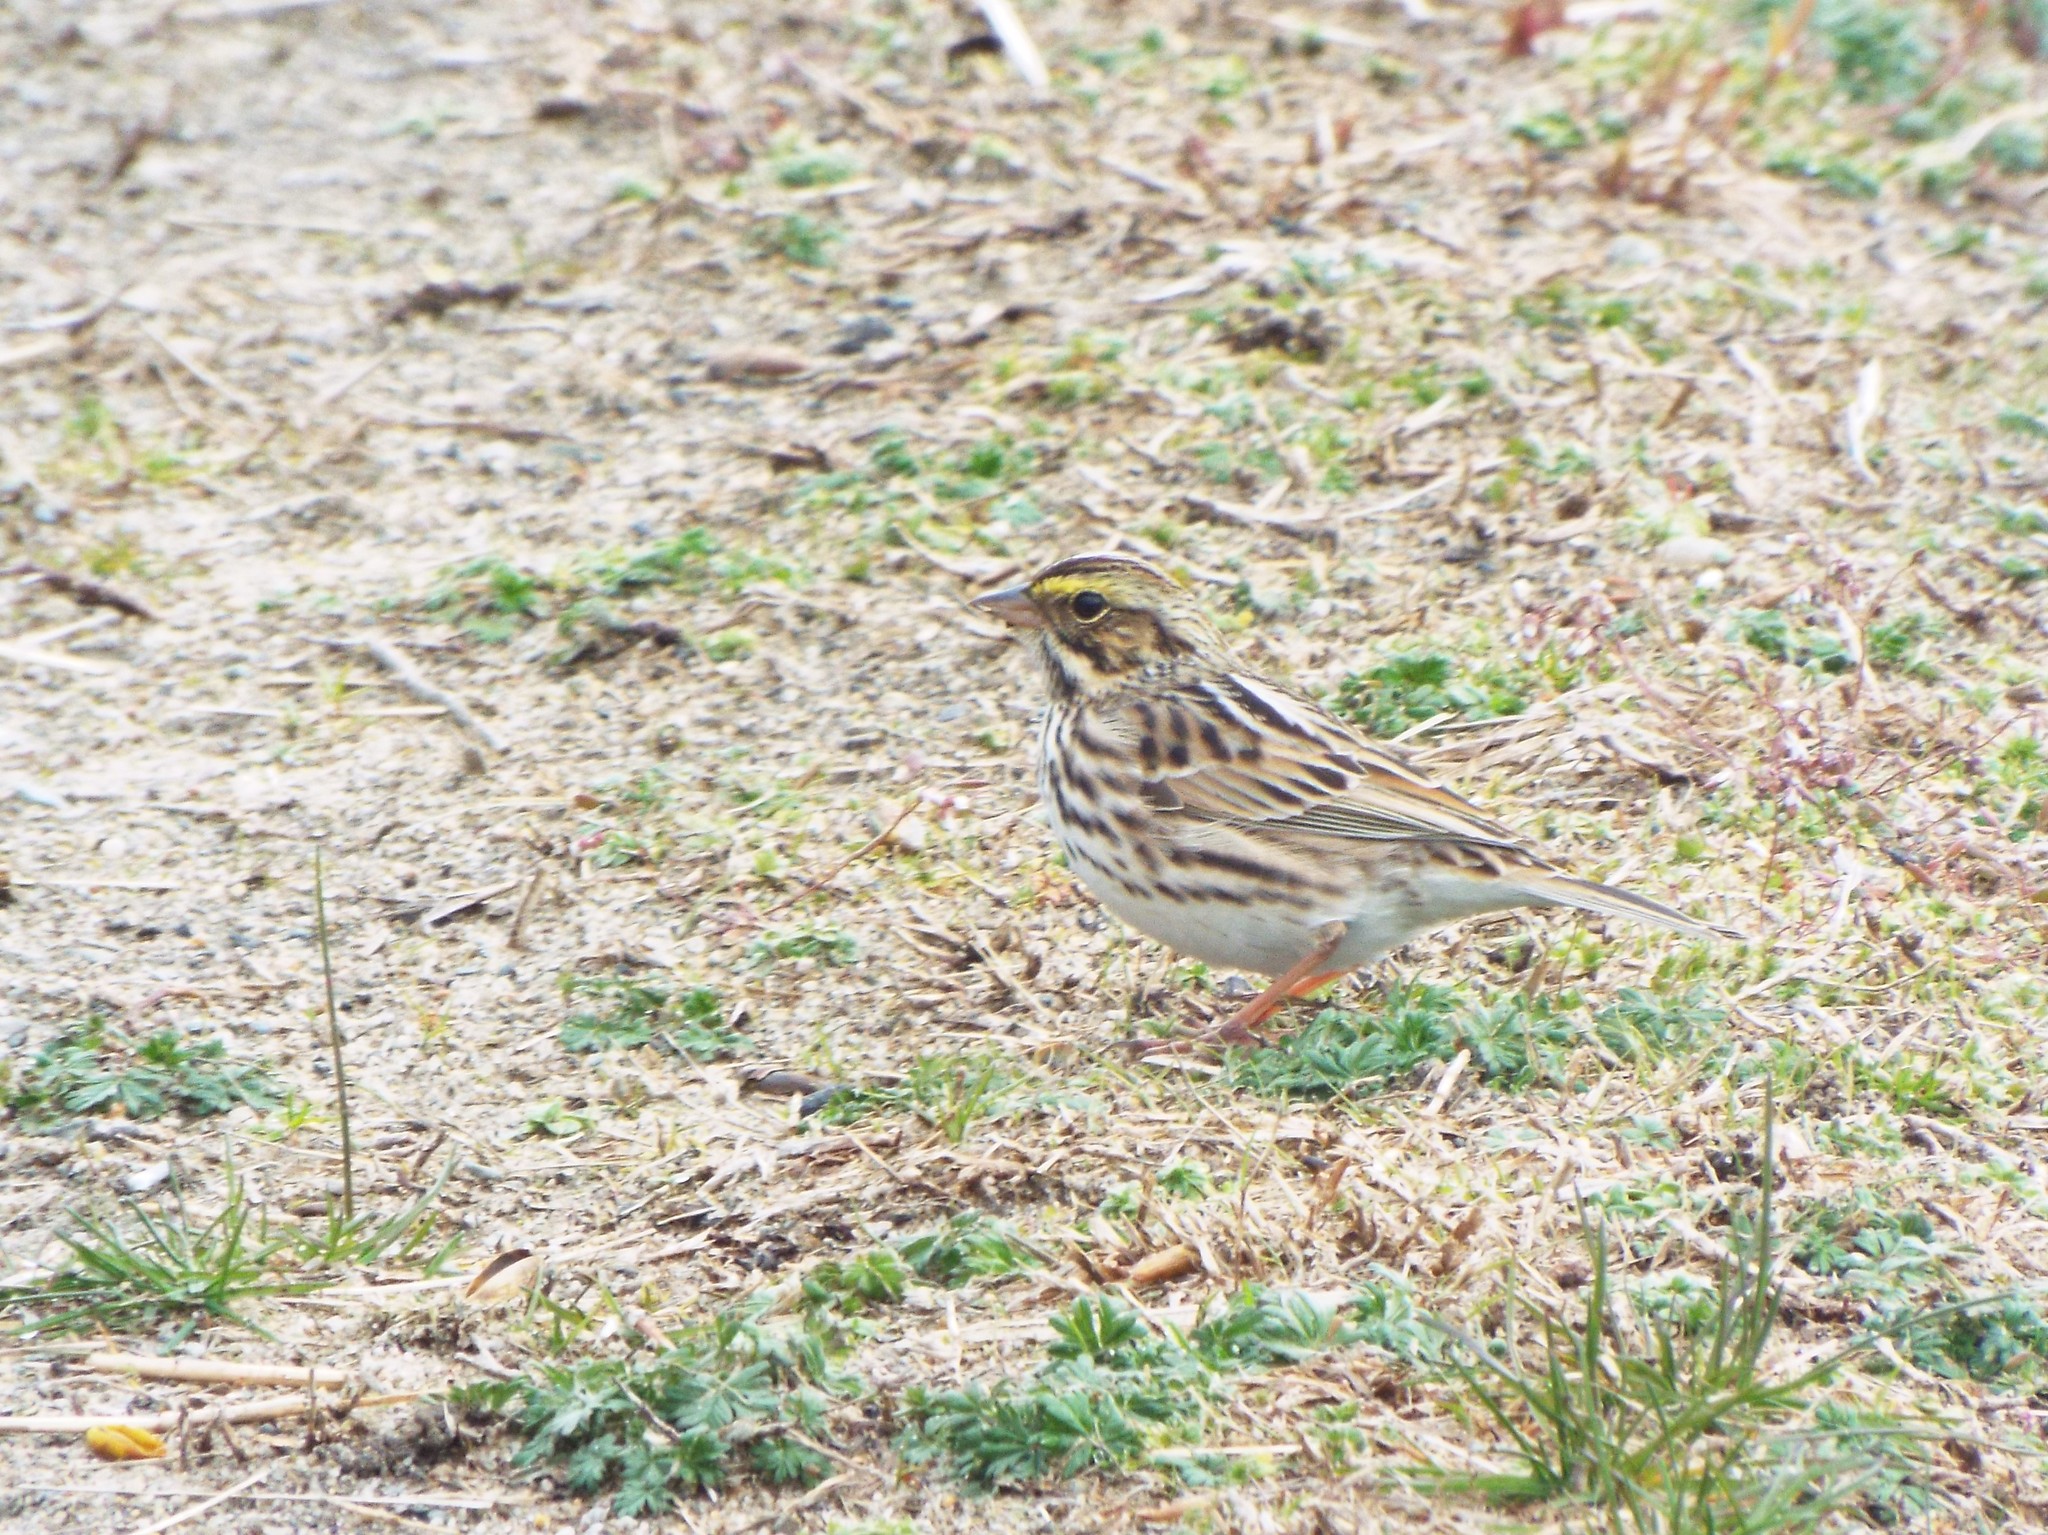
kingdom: Animalia
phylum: Chordata
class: Aves
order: Passeriformes
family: Passerellidae
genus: Passerculus
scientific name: Passerculus sandwichensis
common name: Savannah sparrow
